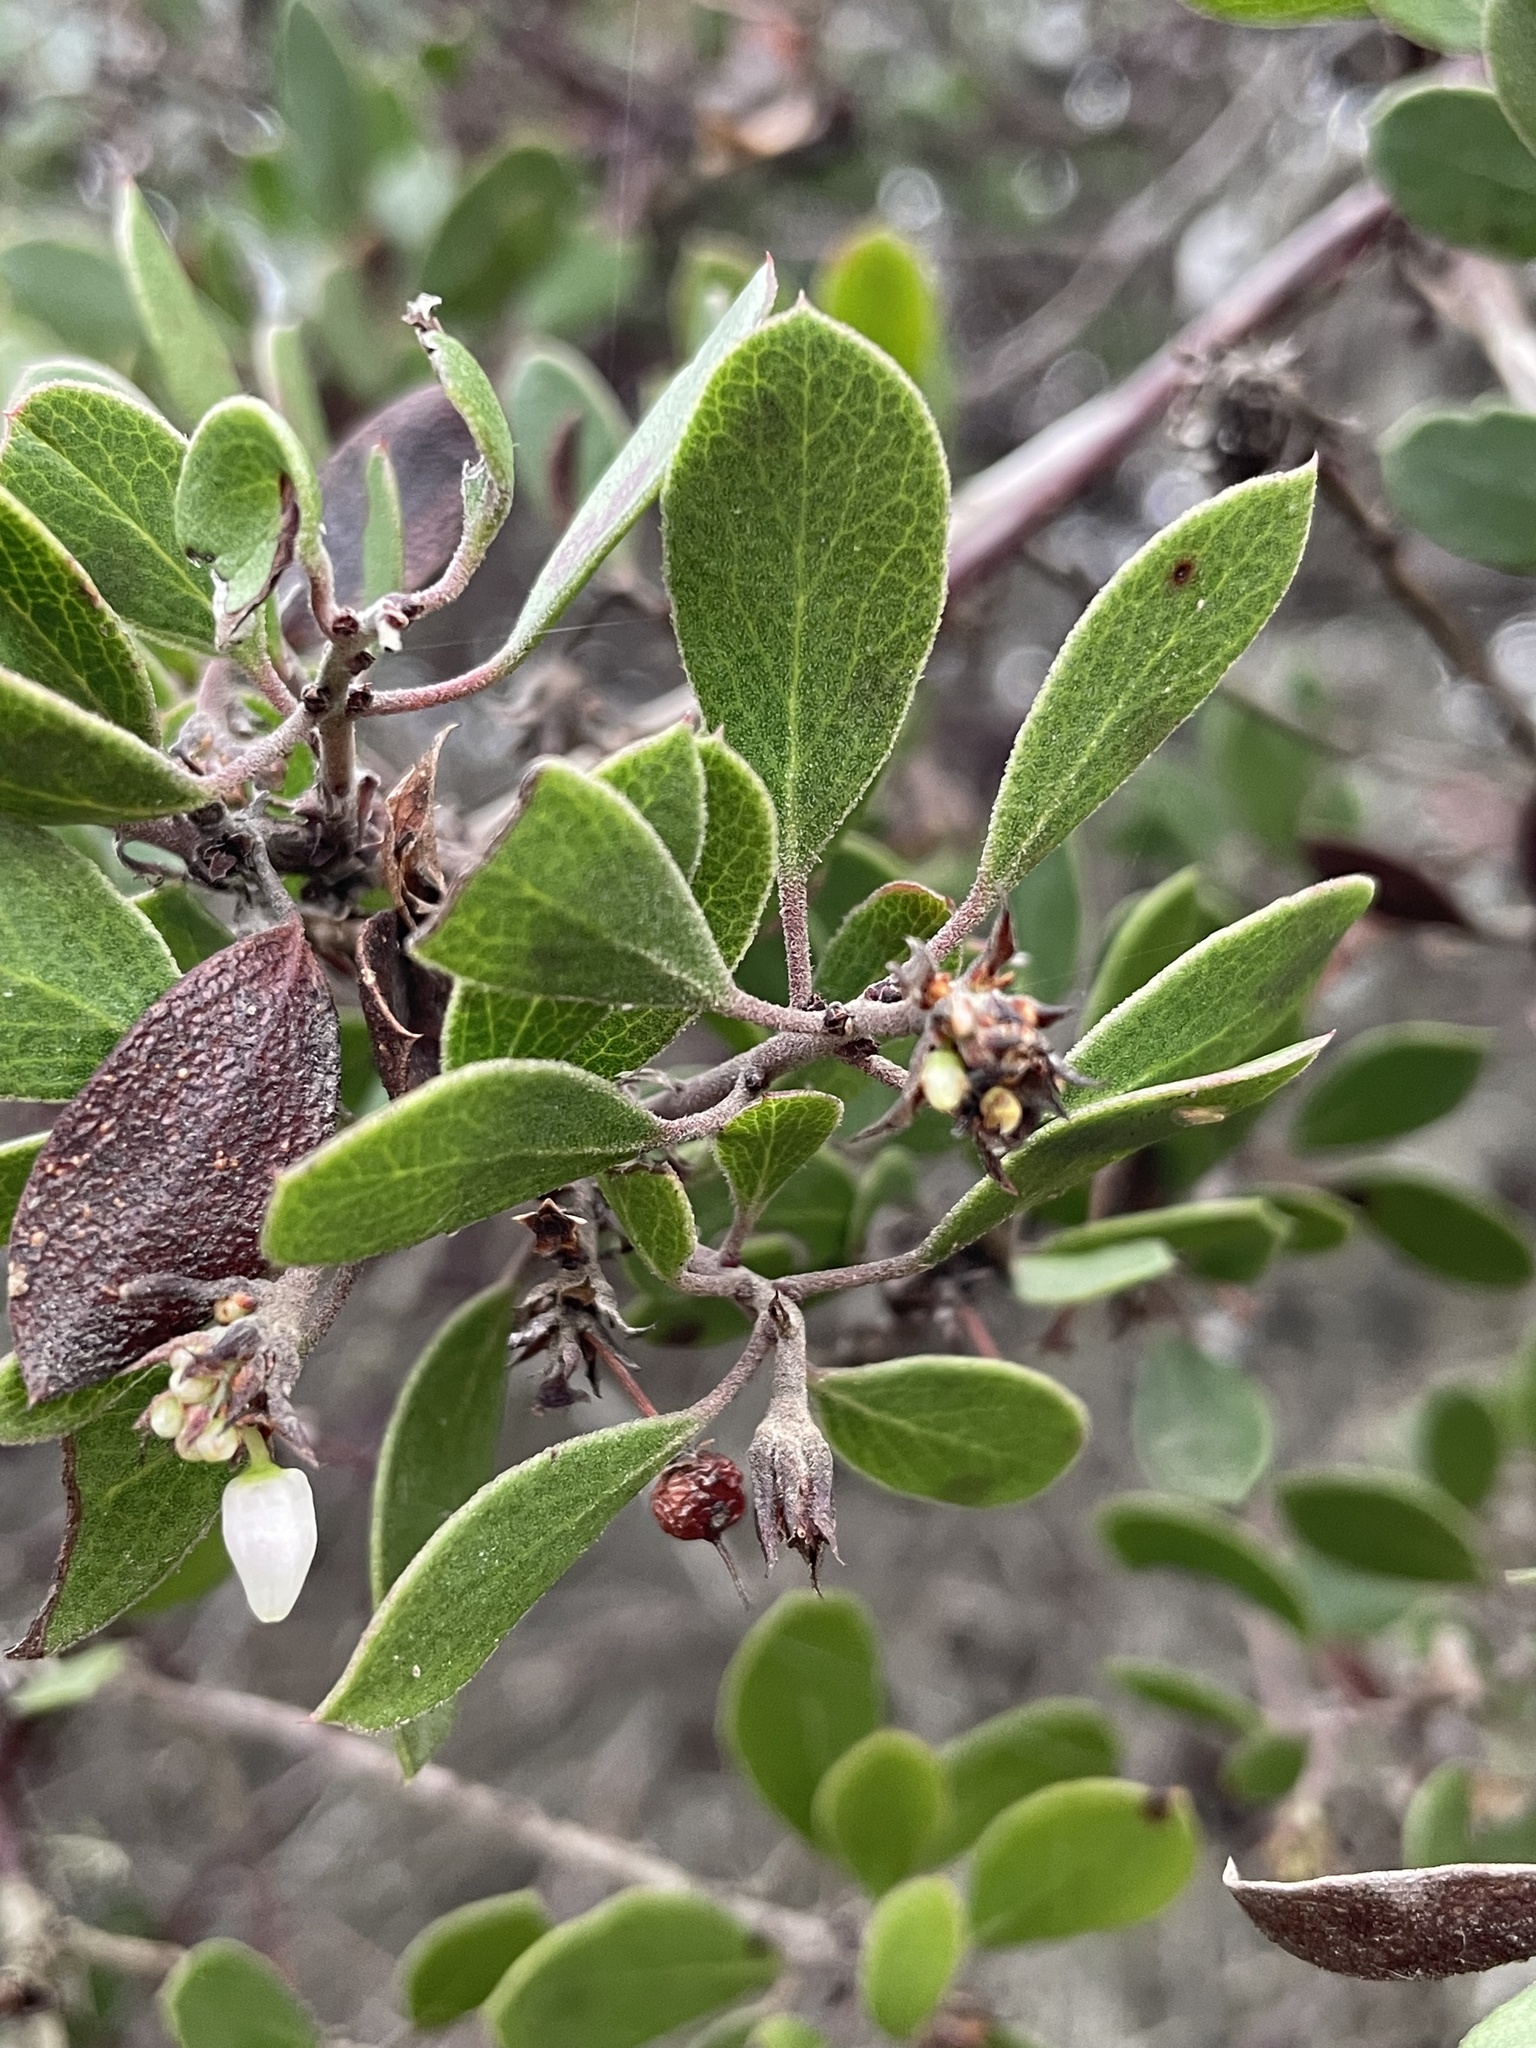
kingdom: Plantae
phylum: Tracheophyta
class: Magnoliopsida
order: Ericales
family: Ericaceae
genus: Arctostaphylos
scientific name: Arctostaphylos hookeri
